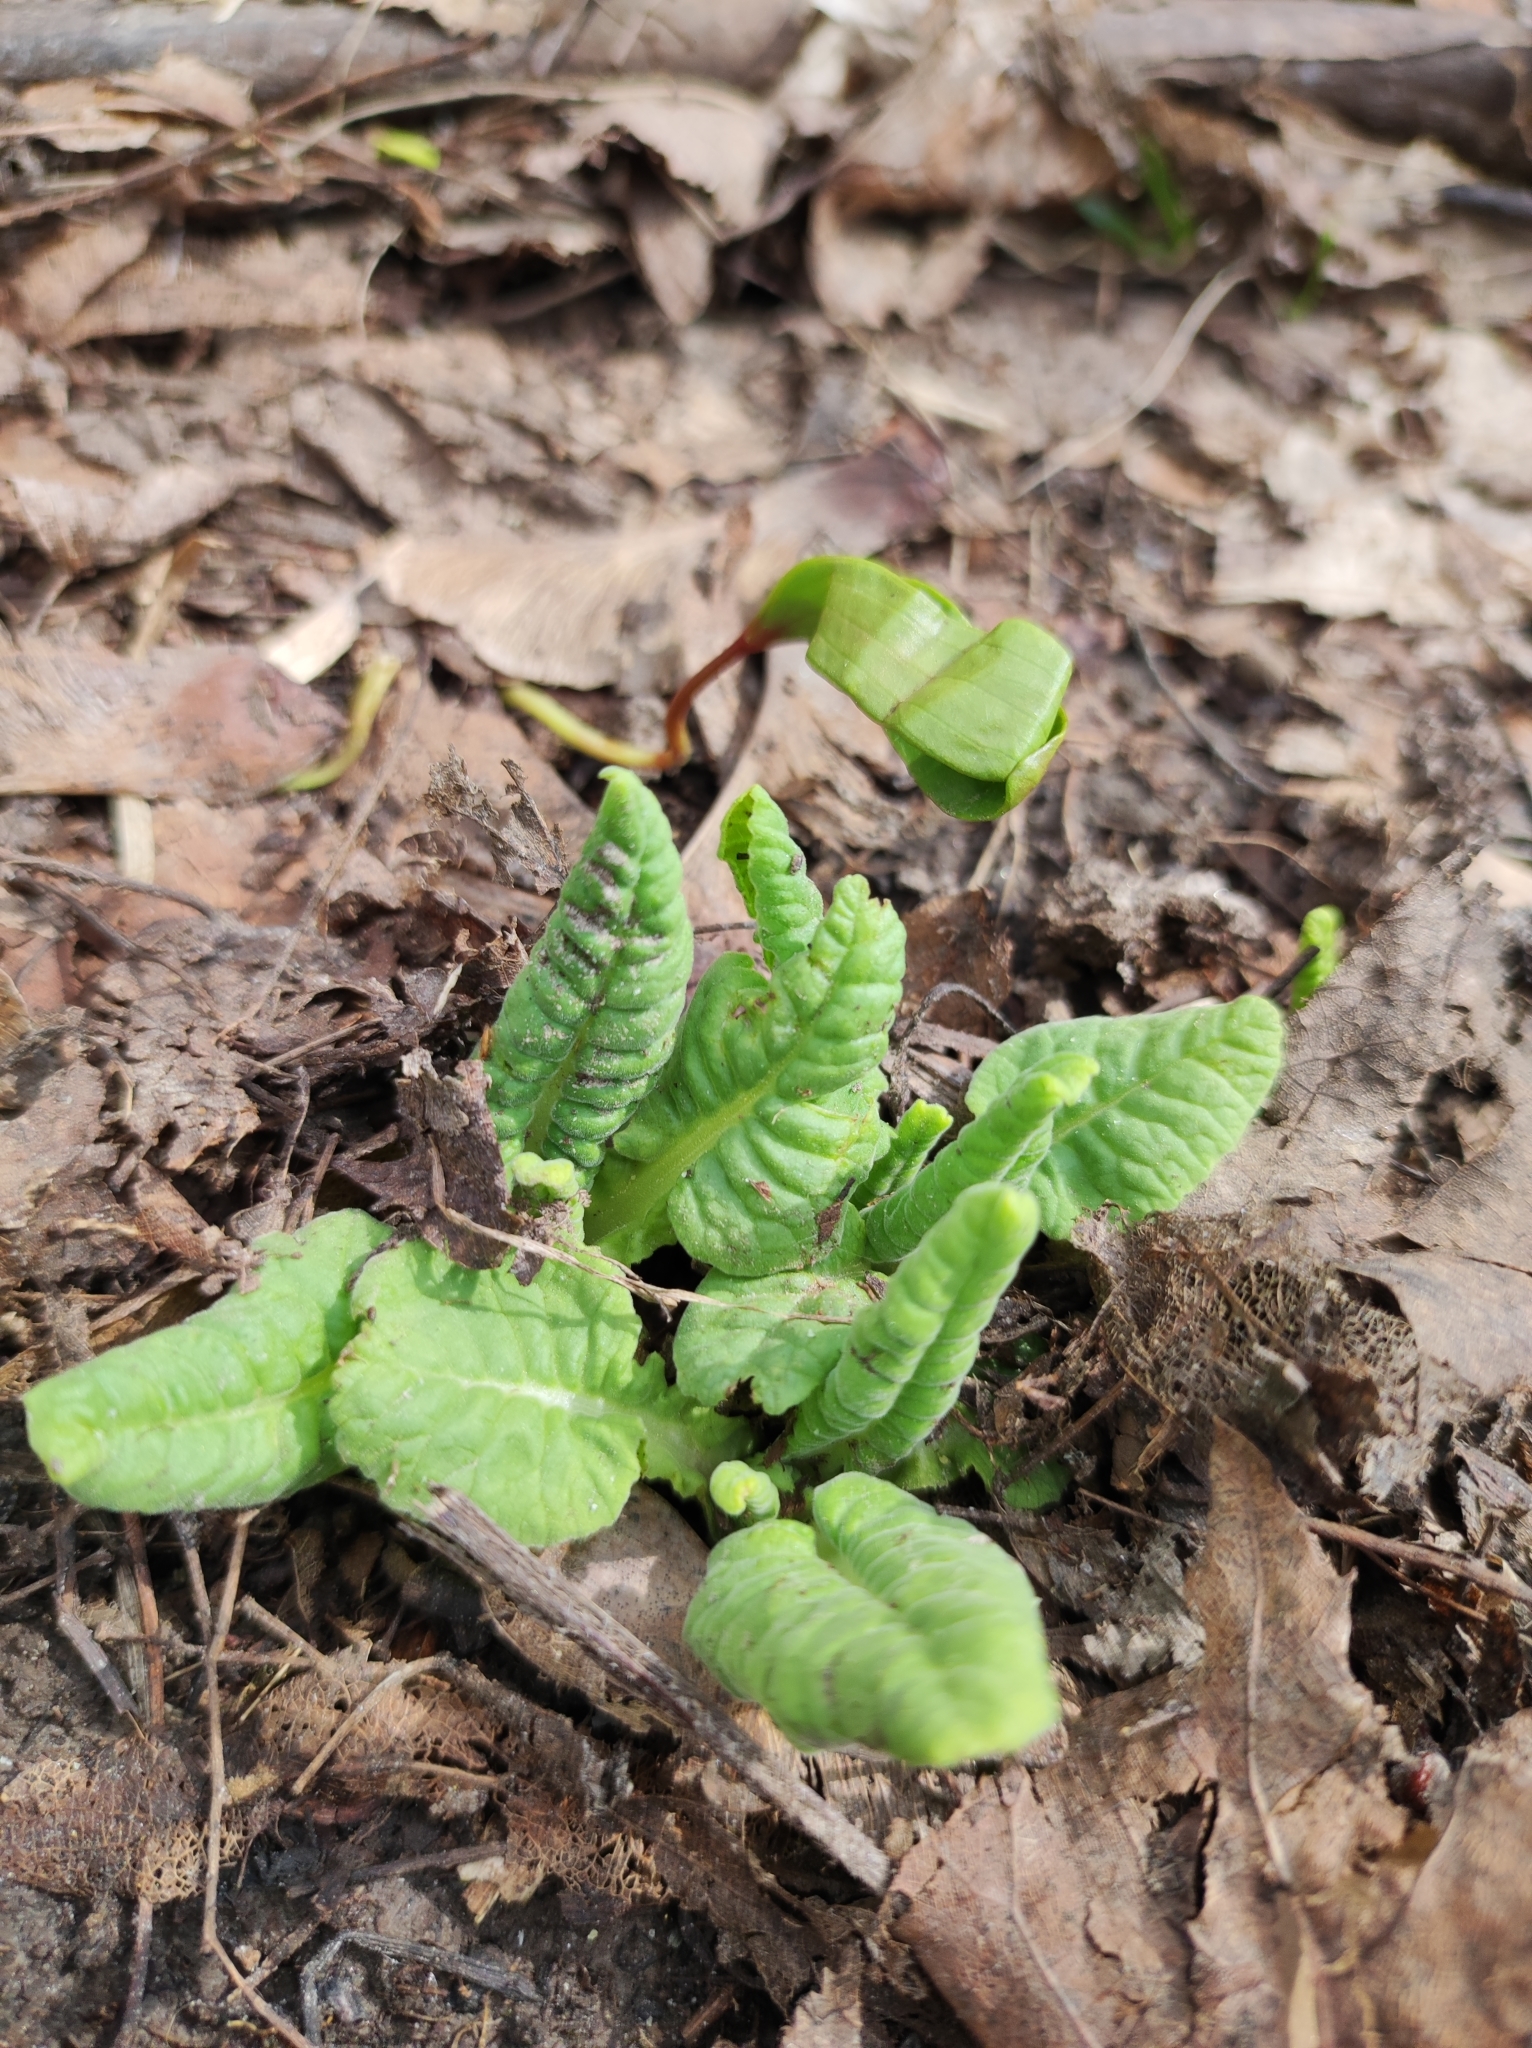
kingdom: Plantae
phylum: Tracheophyta
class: Magnoliopsida
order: Ericales
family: Primulaceae
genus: Primula
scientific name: Primula veris
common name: Cowslip
